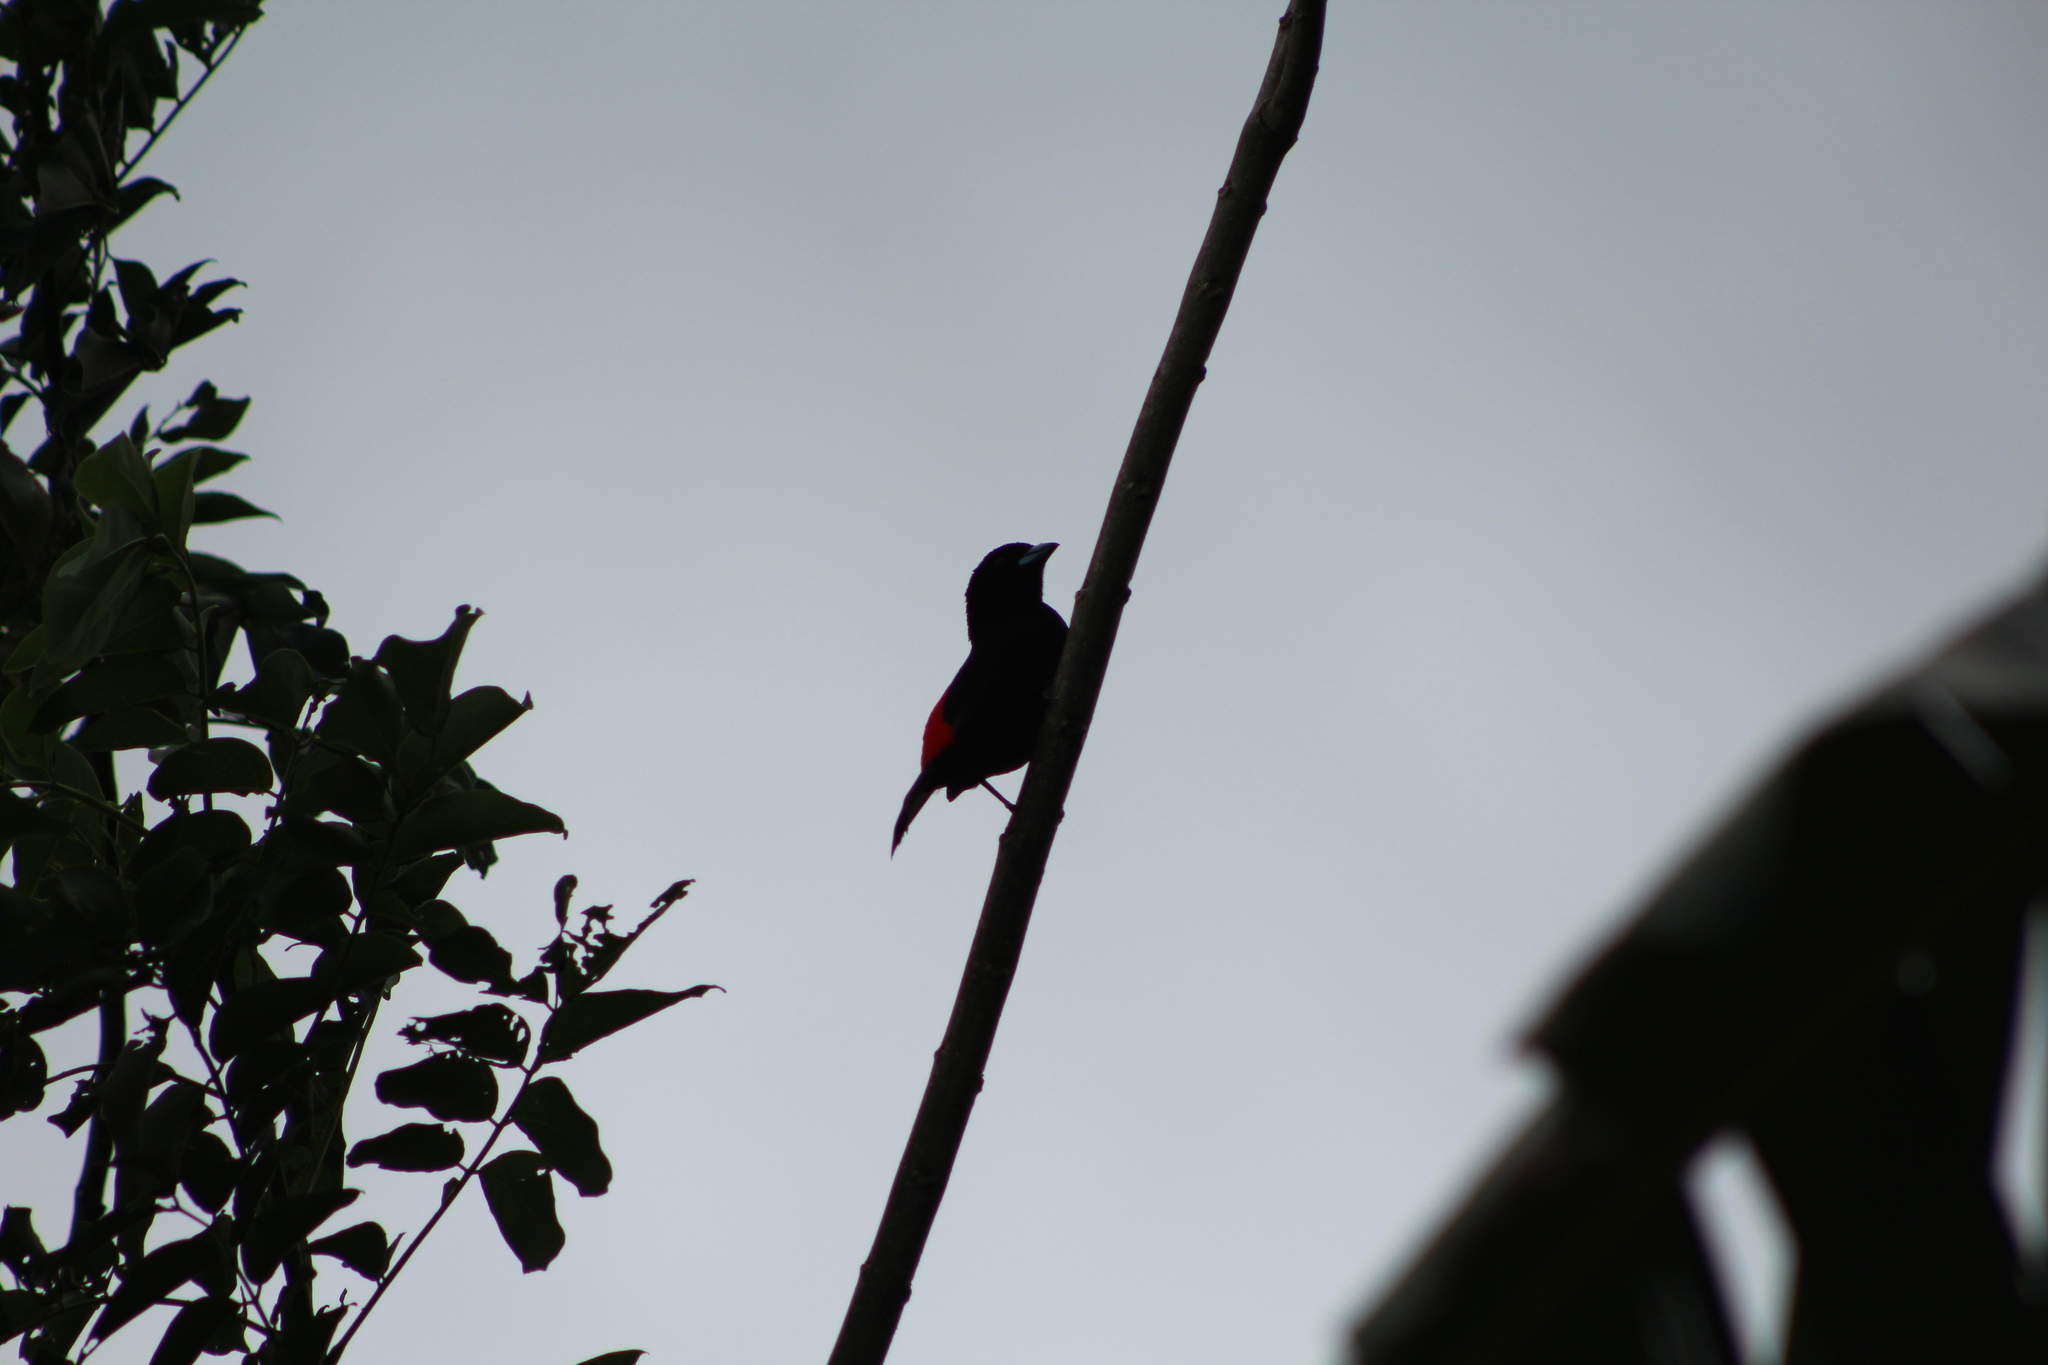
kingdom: Animalia
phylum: Chordata
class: Aves
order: Passeriformes
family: Thraupidae
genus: Ramphocelus
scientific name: Ramphocelus passerinii
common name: Passerini's tanager
